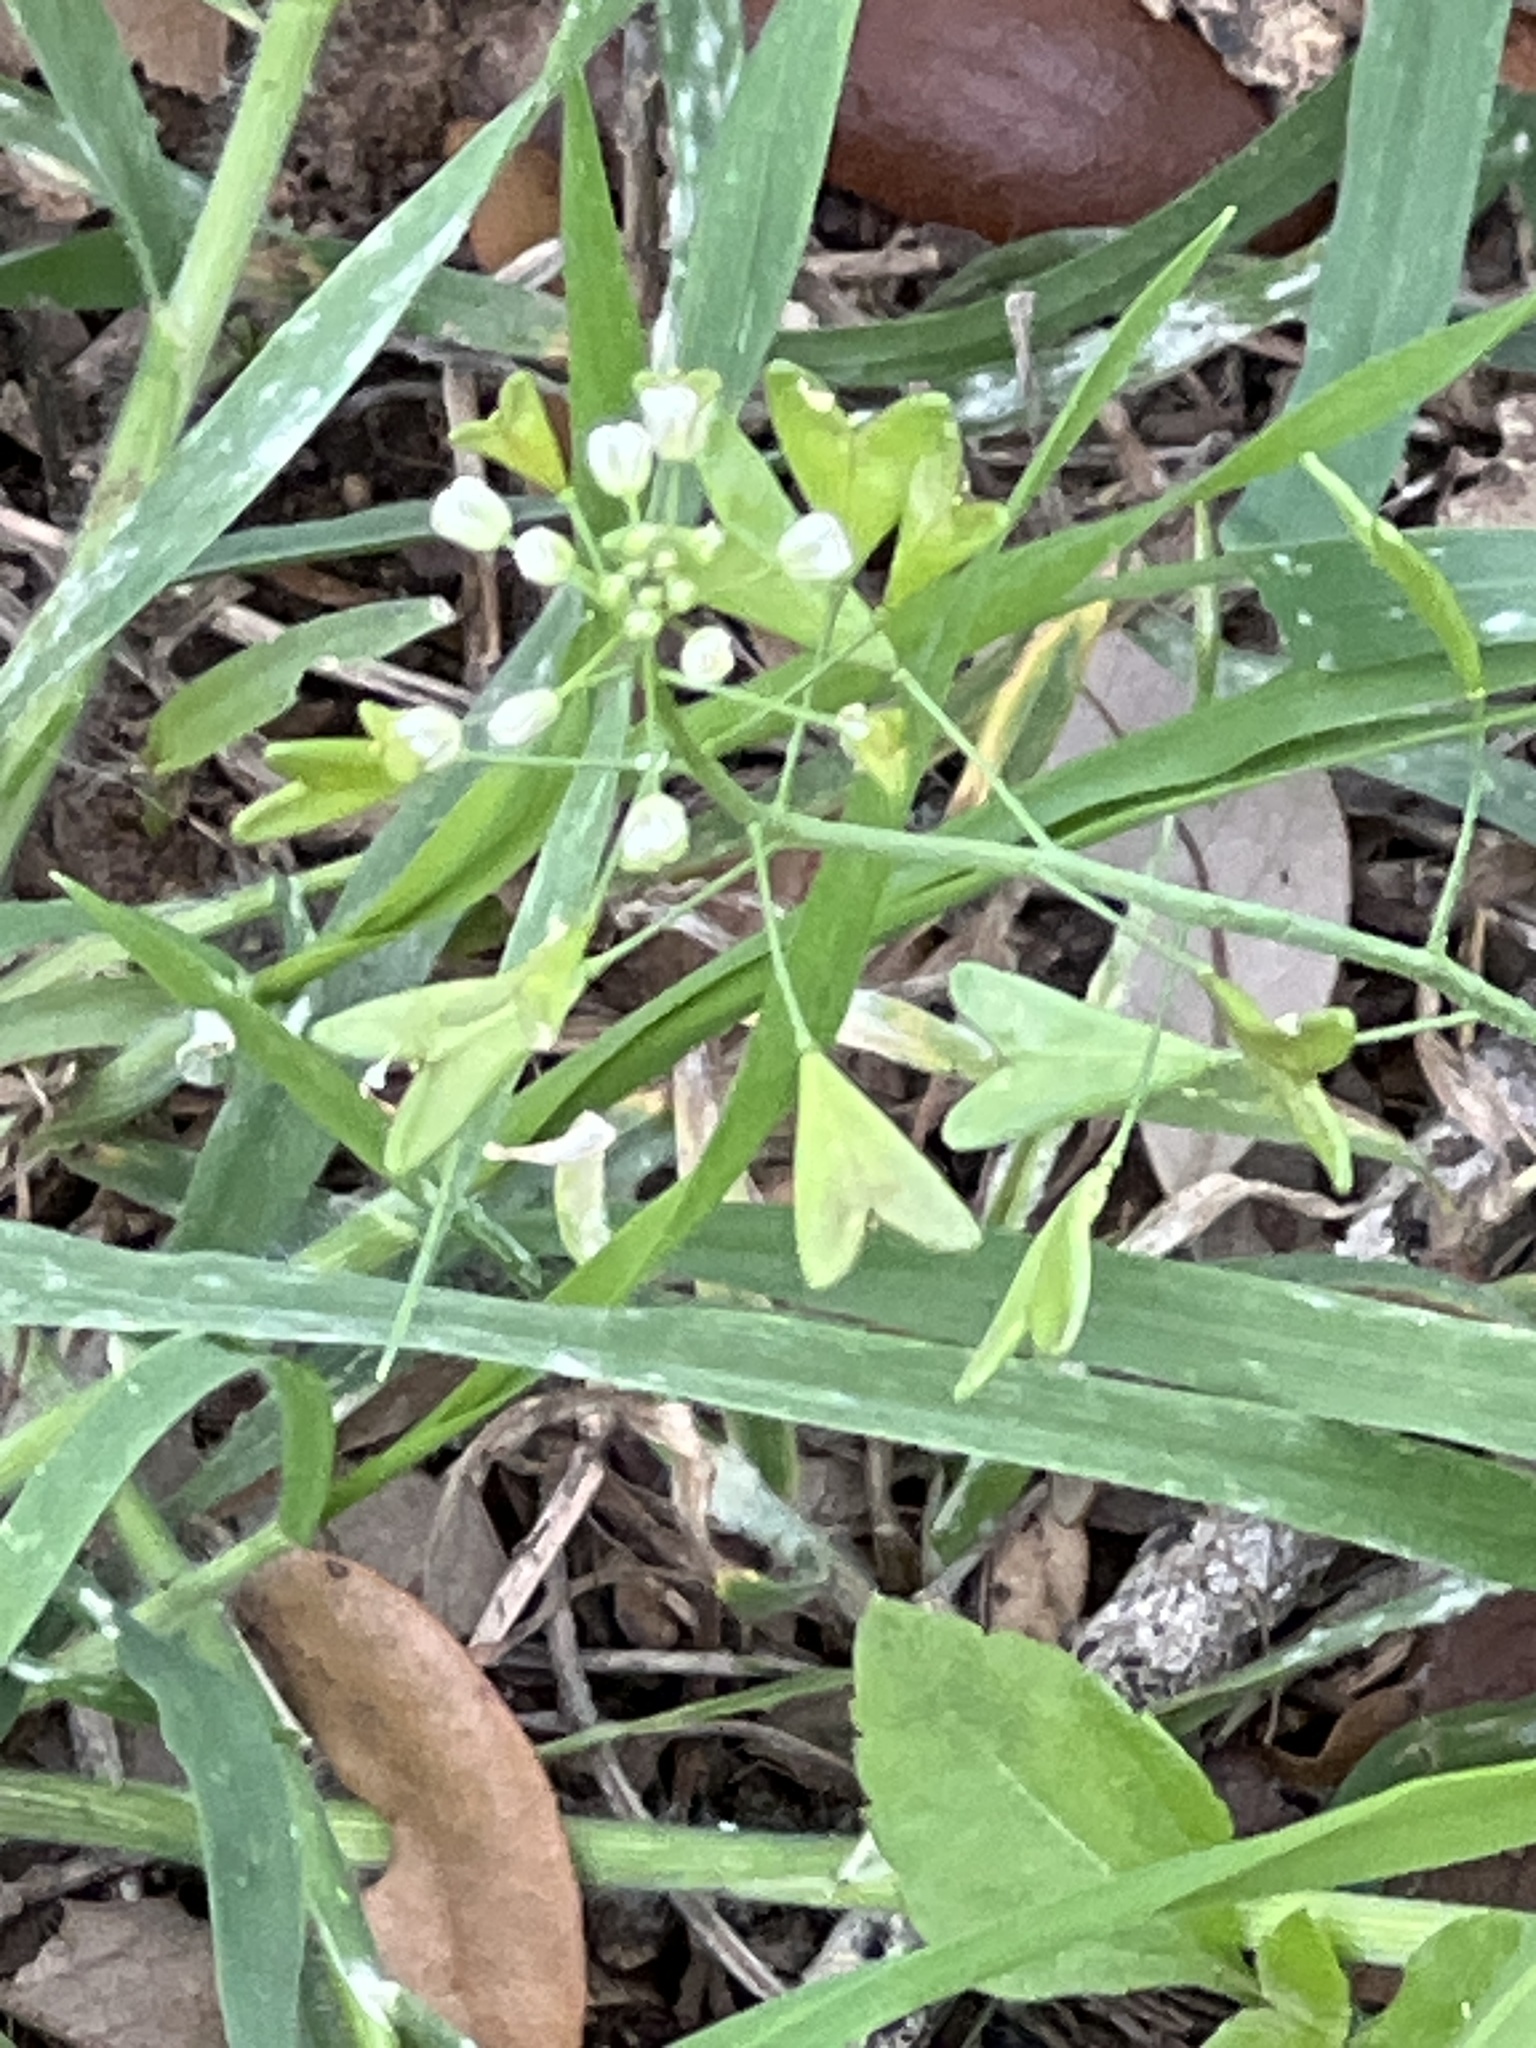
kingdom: Plantae
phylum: Tracheophyta
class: Magnoliopsida
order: Brassicales
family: Brassicaceae
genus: Capsella
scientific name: Capsella bursa-pastoris
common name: Shepherd's purse
